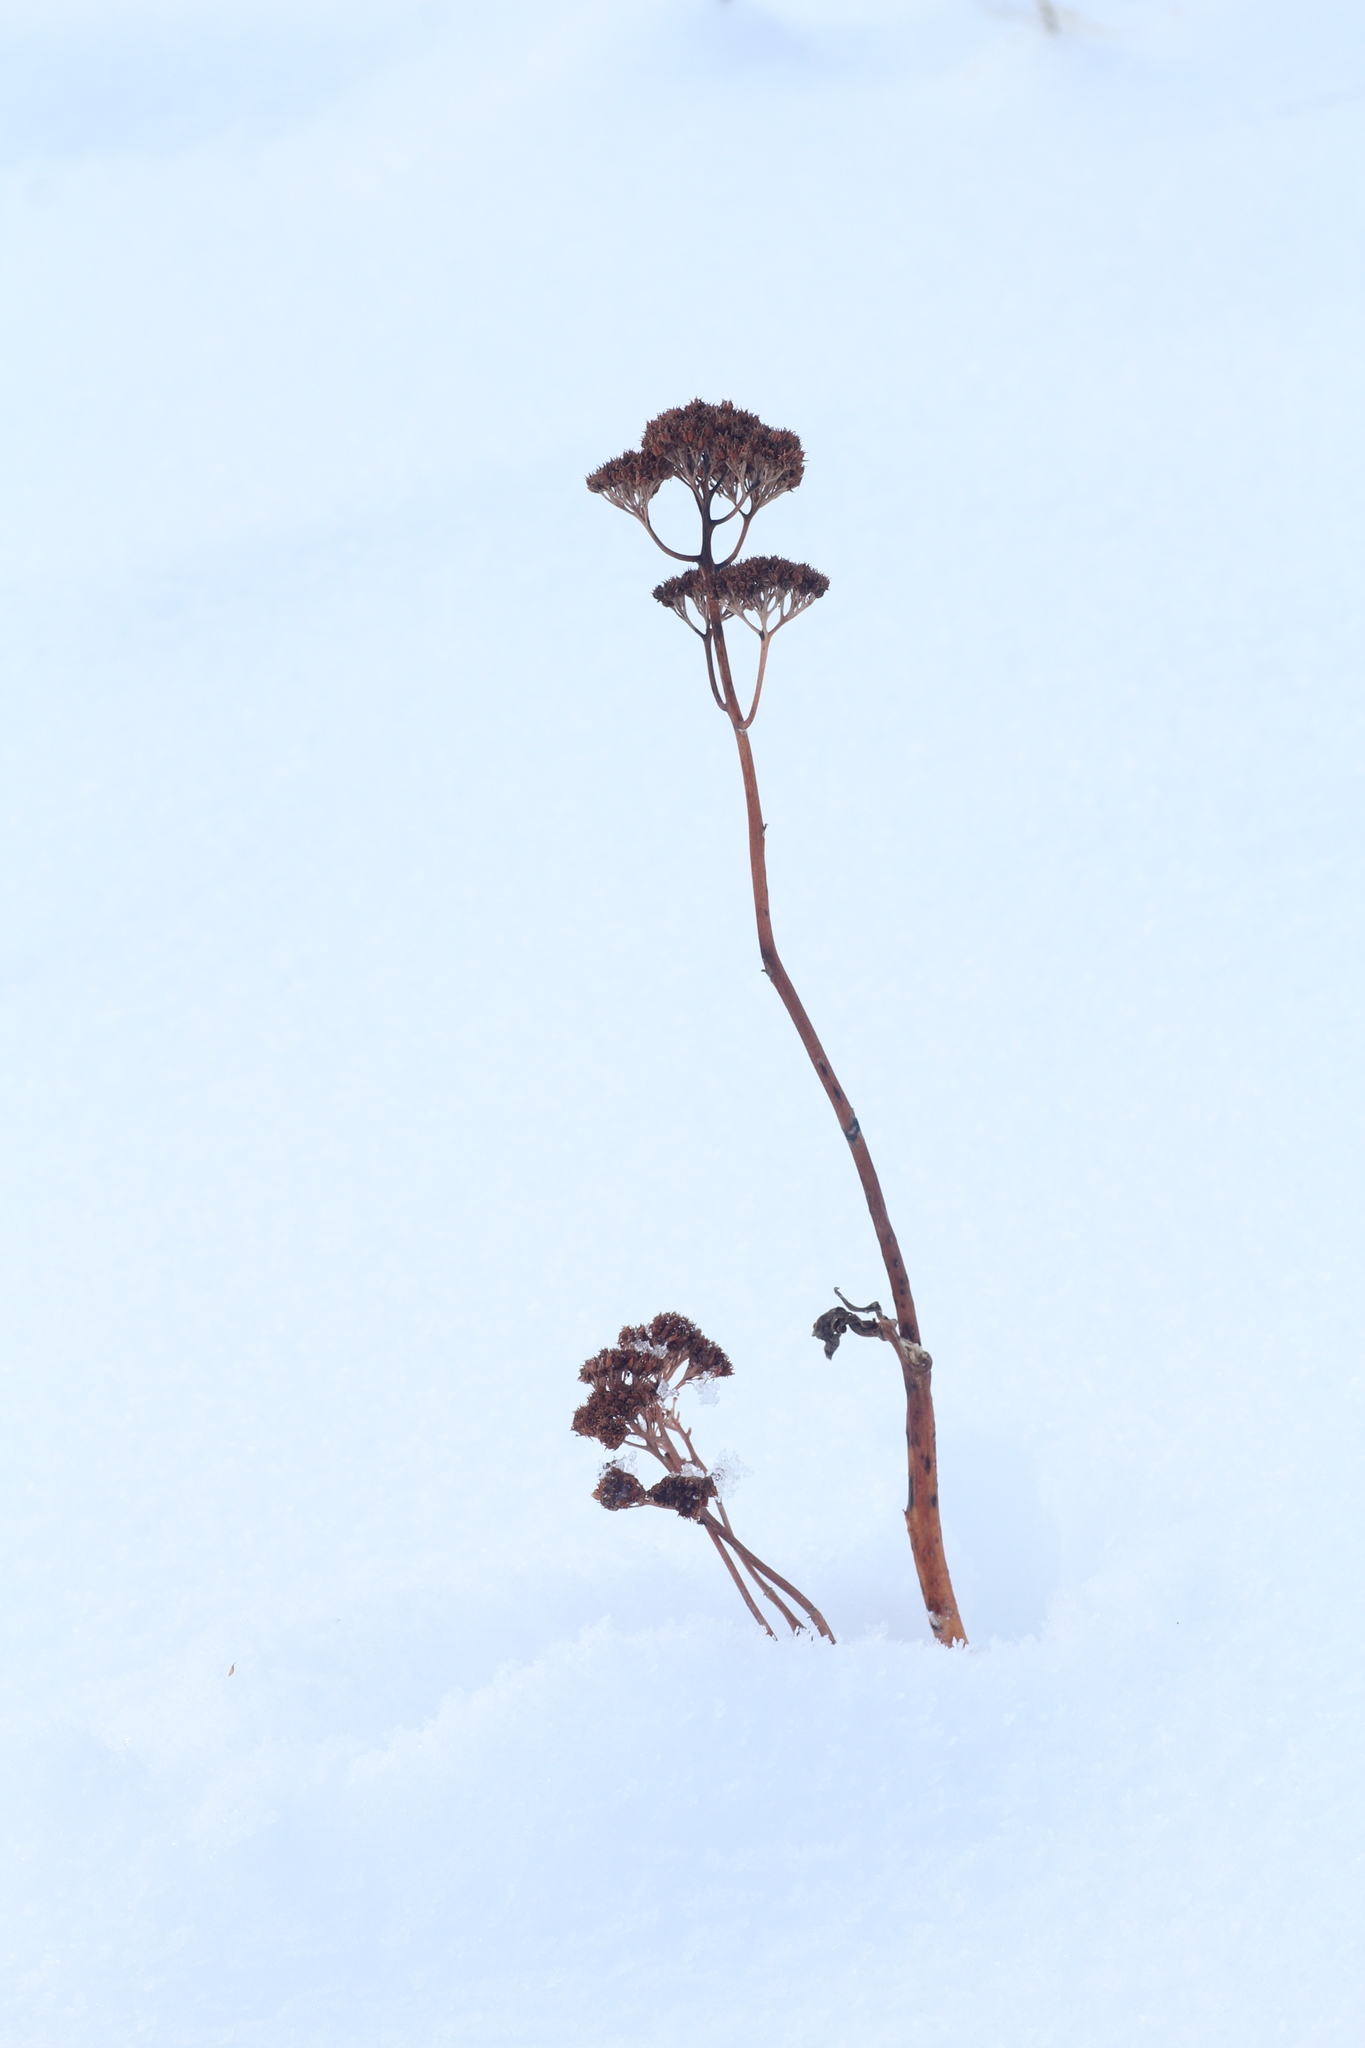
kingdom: Plantae
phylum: Tracheophyta
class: Magnoliopsida
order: Saxifragales
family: Crassulaceae
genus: Hylotelephium
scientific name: Hylotelephium telephium
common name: Live-forever
